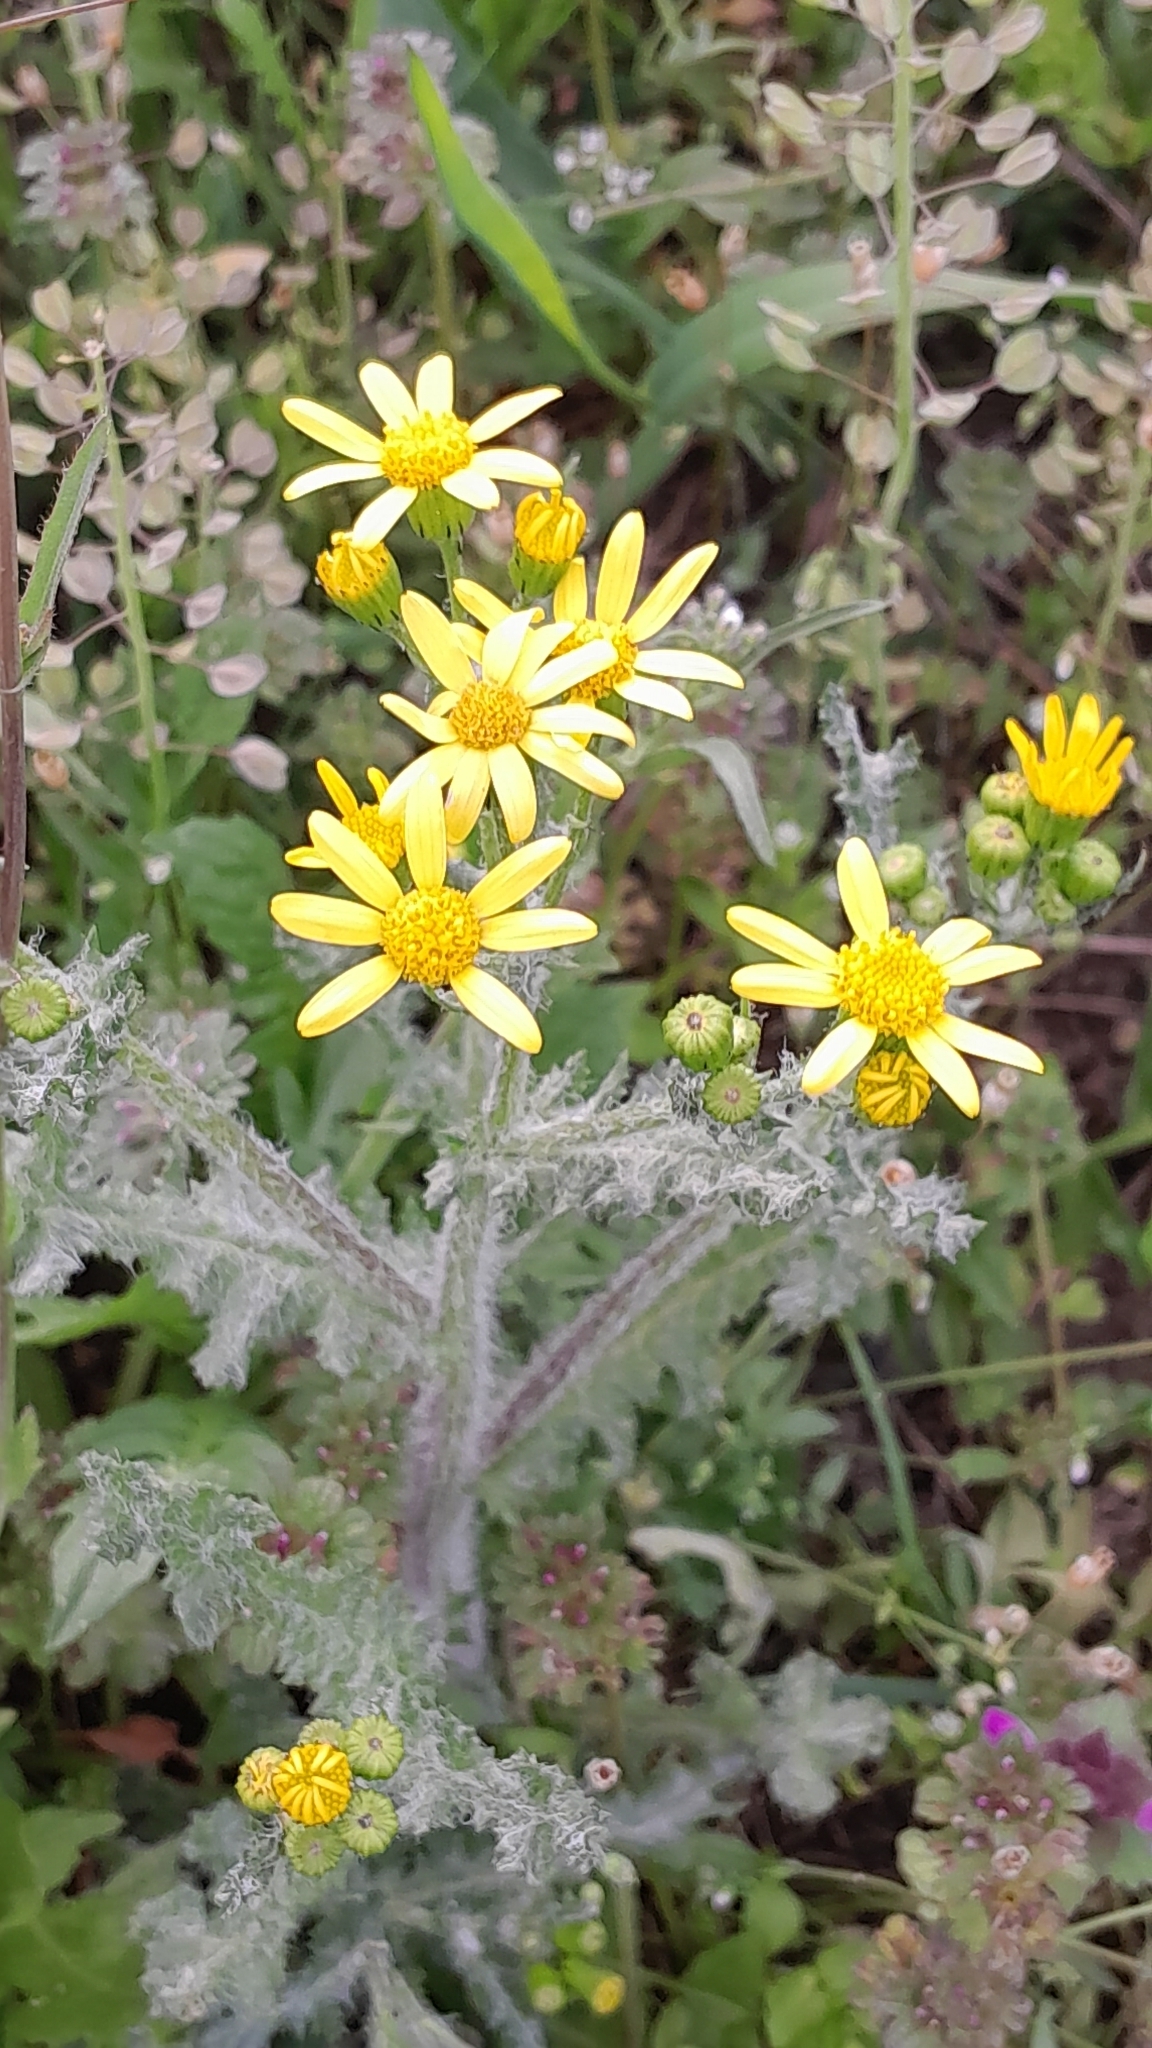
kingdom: Plantae
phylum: Tracheophyta
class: Magnoliopsida
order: Asterales
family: Asteraceae
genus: Senecio
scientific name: Senecio vernalis
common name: Eastern groundsel
